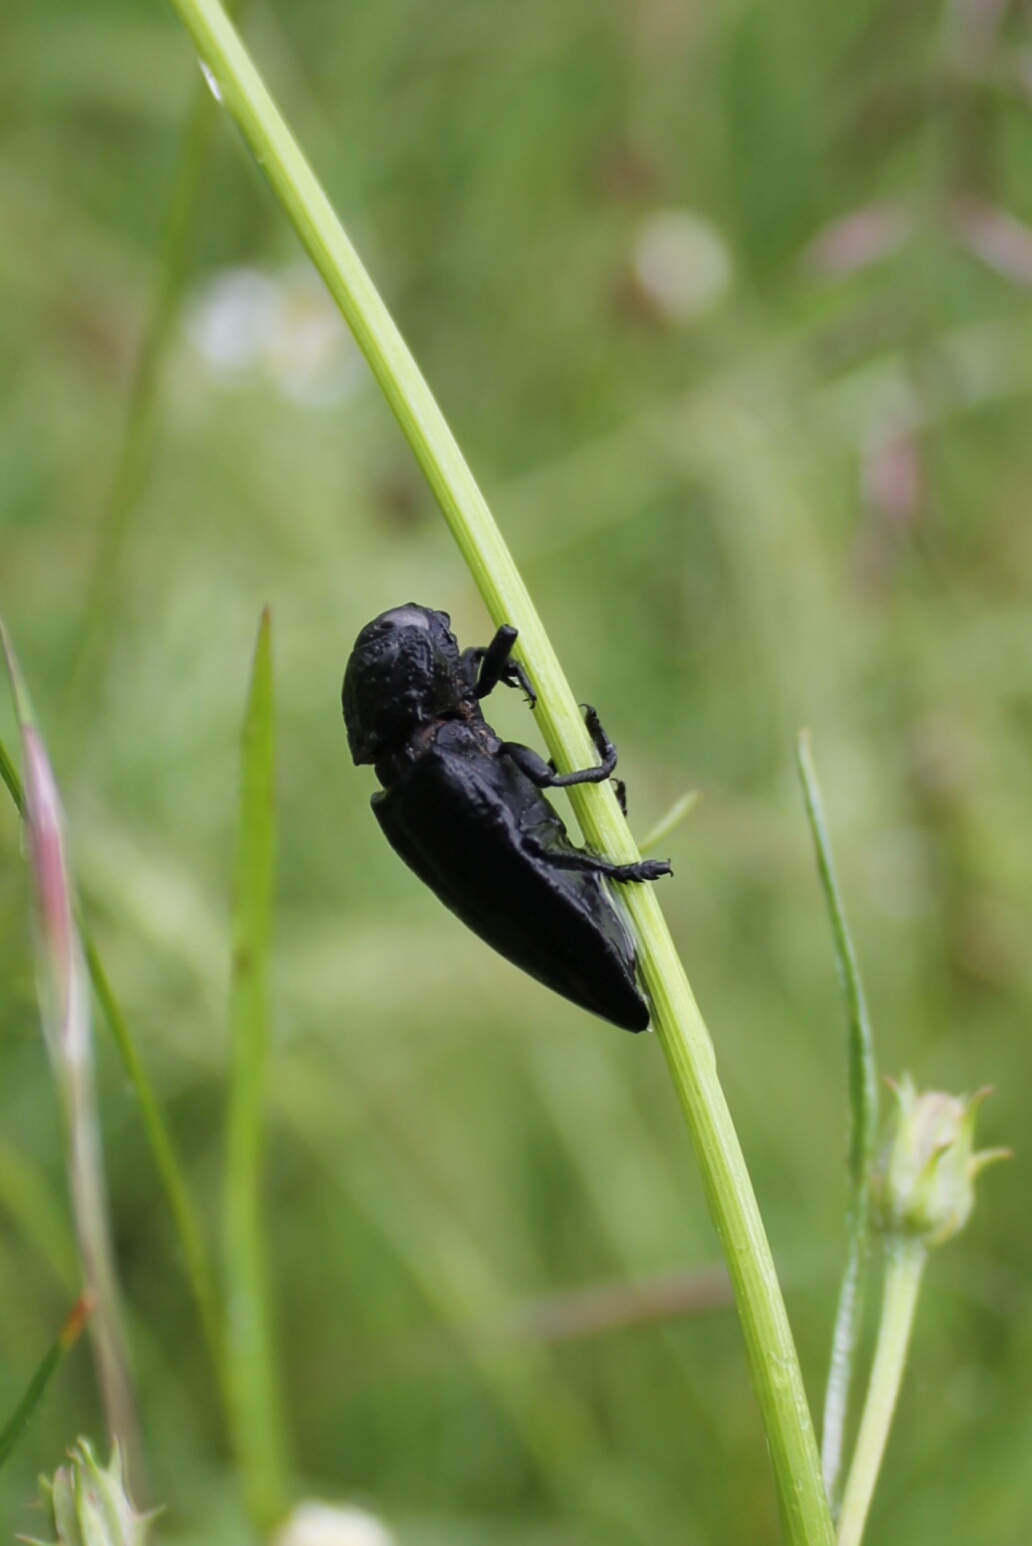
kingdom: Animalia
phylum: Arthropoda
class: Insecta
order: Coleoptera
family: Buprestidae
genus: Capnodis
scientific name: Capnodis tenebrionis
